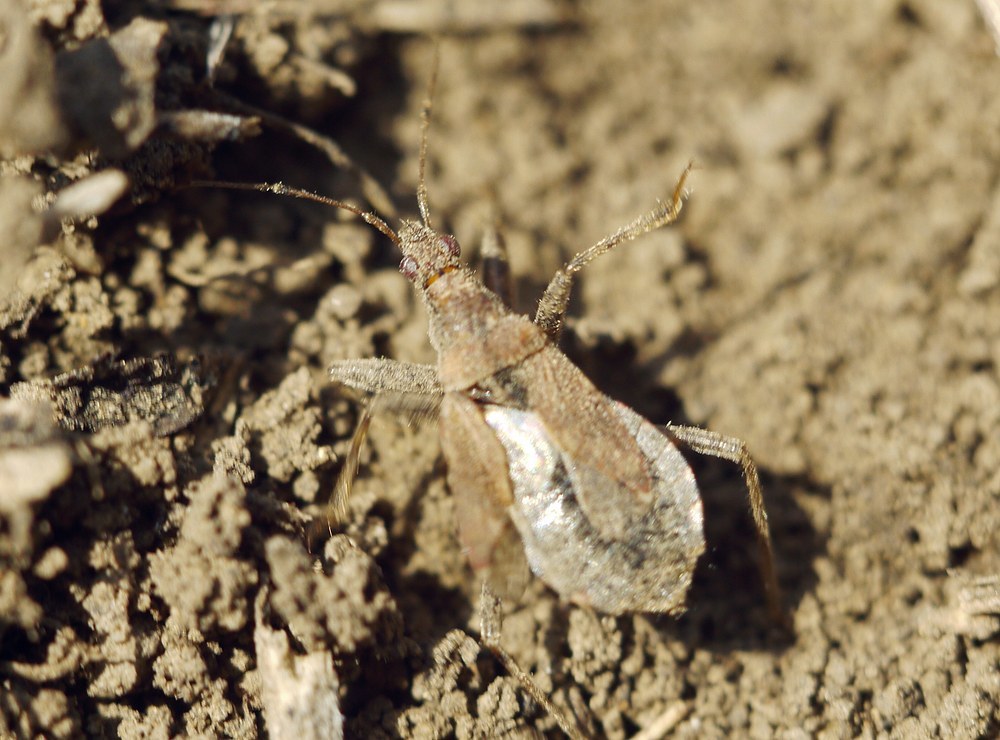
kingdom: Animalia
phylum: Arthropoda
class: Insecta
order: Hemiptera
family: Nabidae
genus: Himacerus
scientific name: Himacerus mirmicoides
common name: Ant damsel bug
